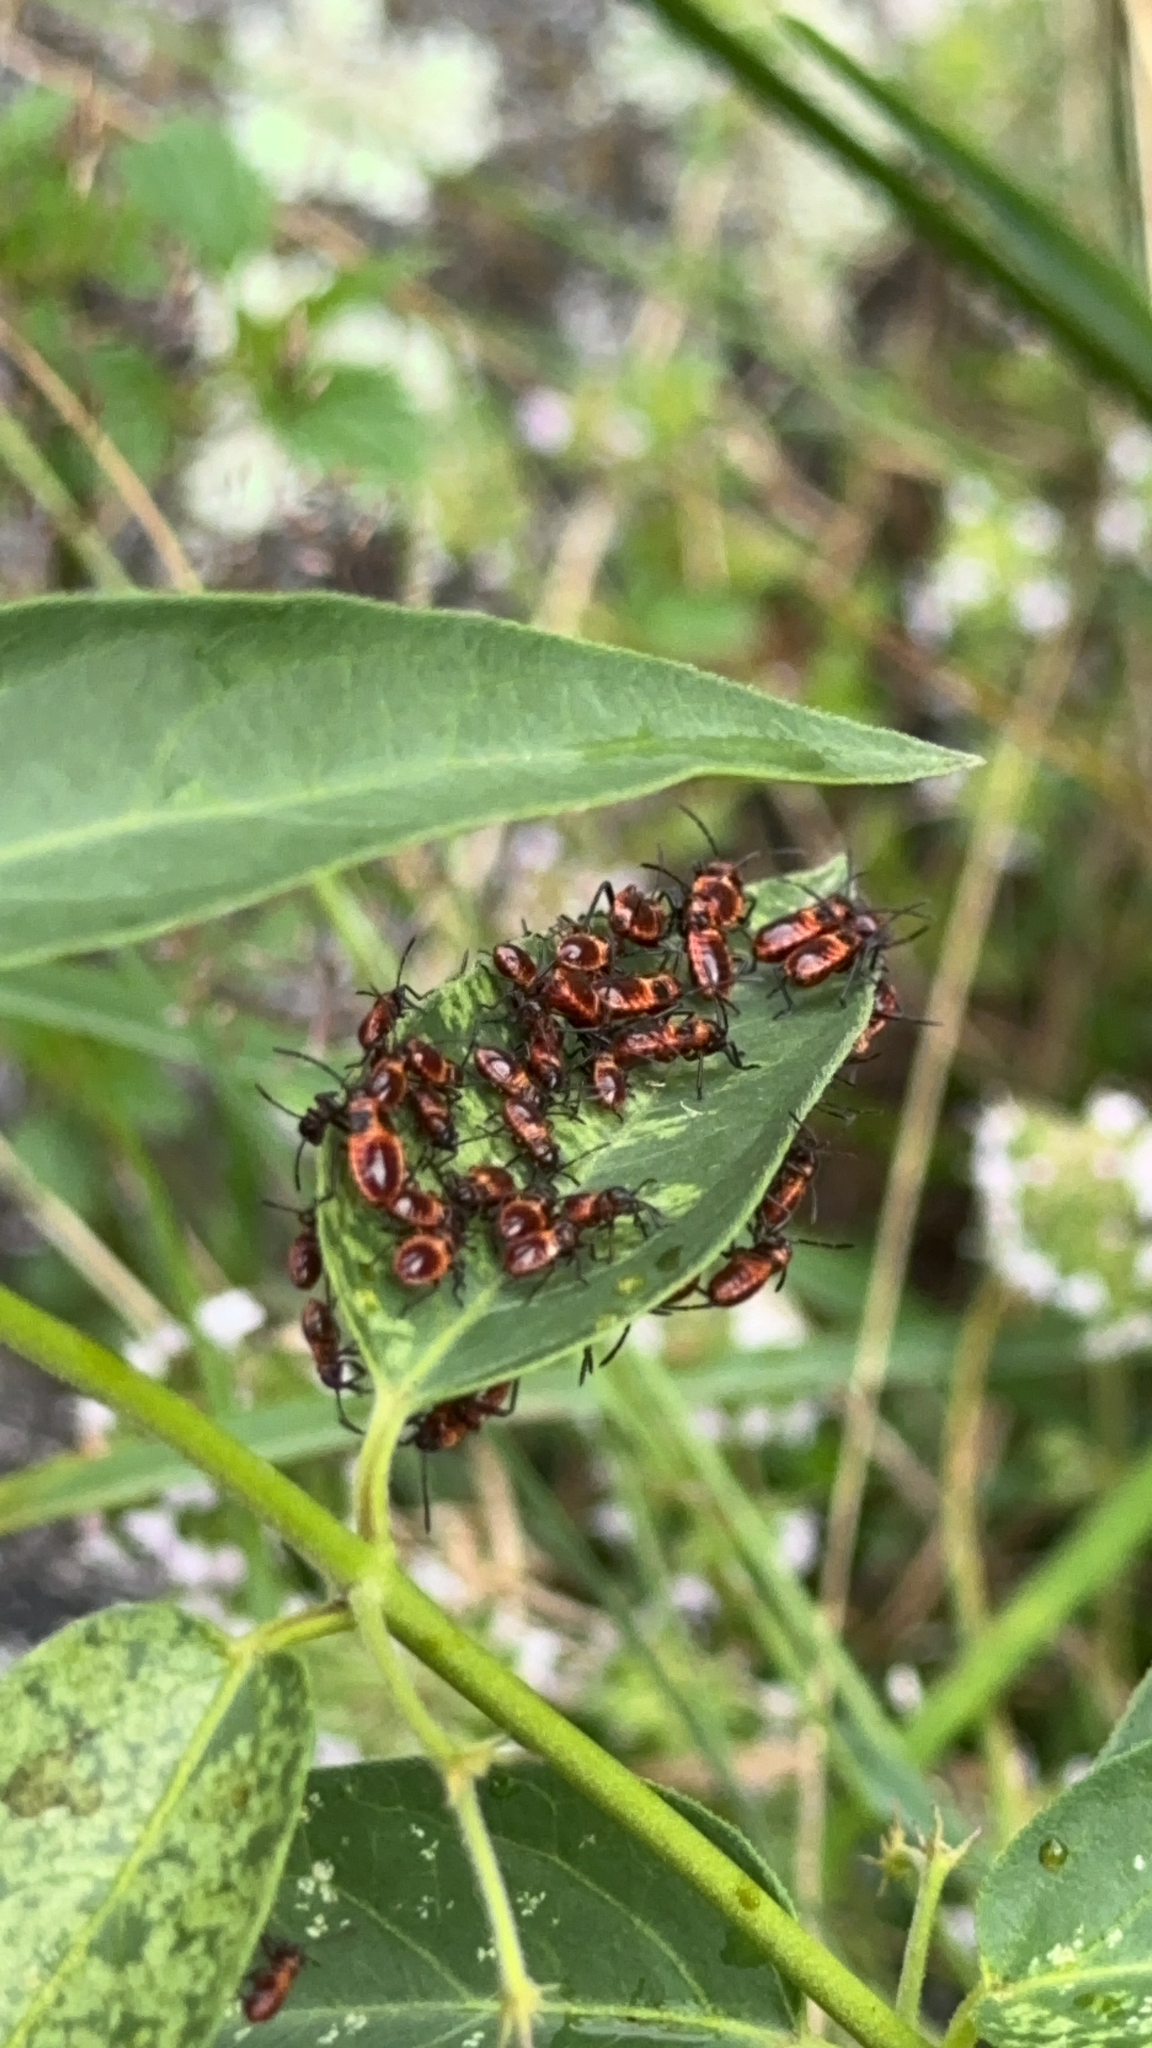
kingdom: Animalia
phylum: Arthropoda
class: Insecta
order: Hemiptera
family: Lygaeidae
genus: Tropidothorax
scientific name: Tropidothorax leucopterus
